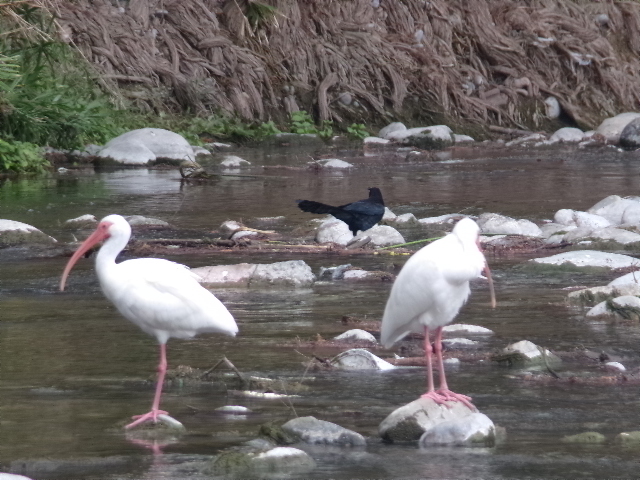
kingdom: Animalia
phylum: Chordata
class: Aves
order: Pelecaniformes
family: Threskiornithidae
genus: Eudocimus
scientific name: Eudocimus albus
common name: White ibis
